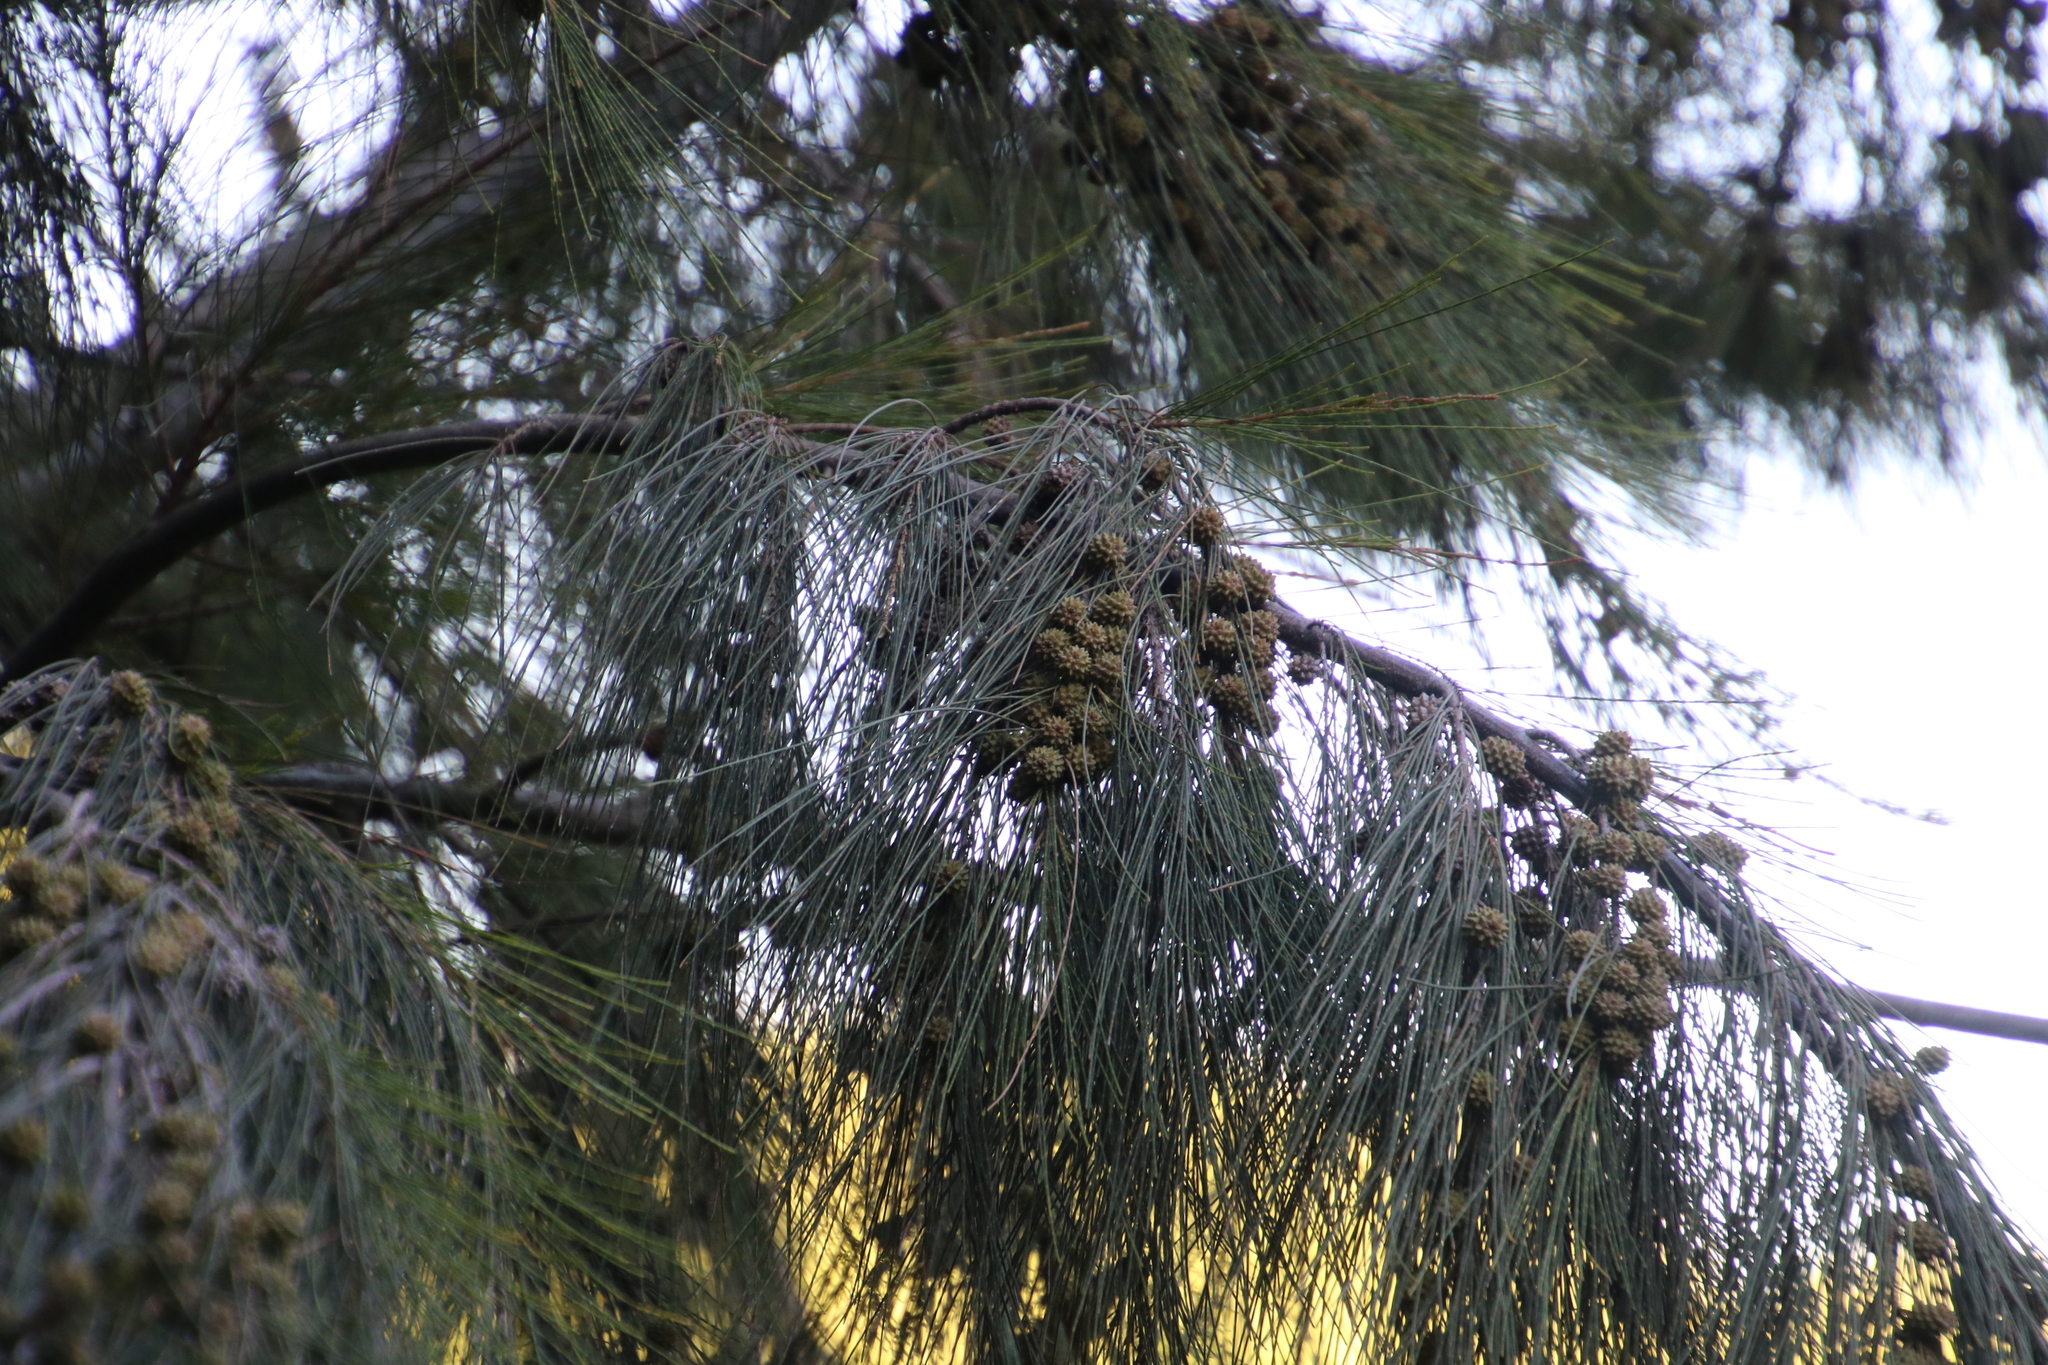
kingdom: Plantae
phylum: Tracheophyta
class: Magnoliopsida
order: Fagales
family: Casuarinaceae
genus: Casuarina
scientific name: Casuarina cunninghamiana
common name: River sheoak
